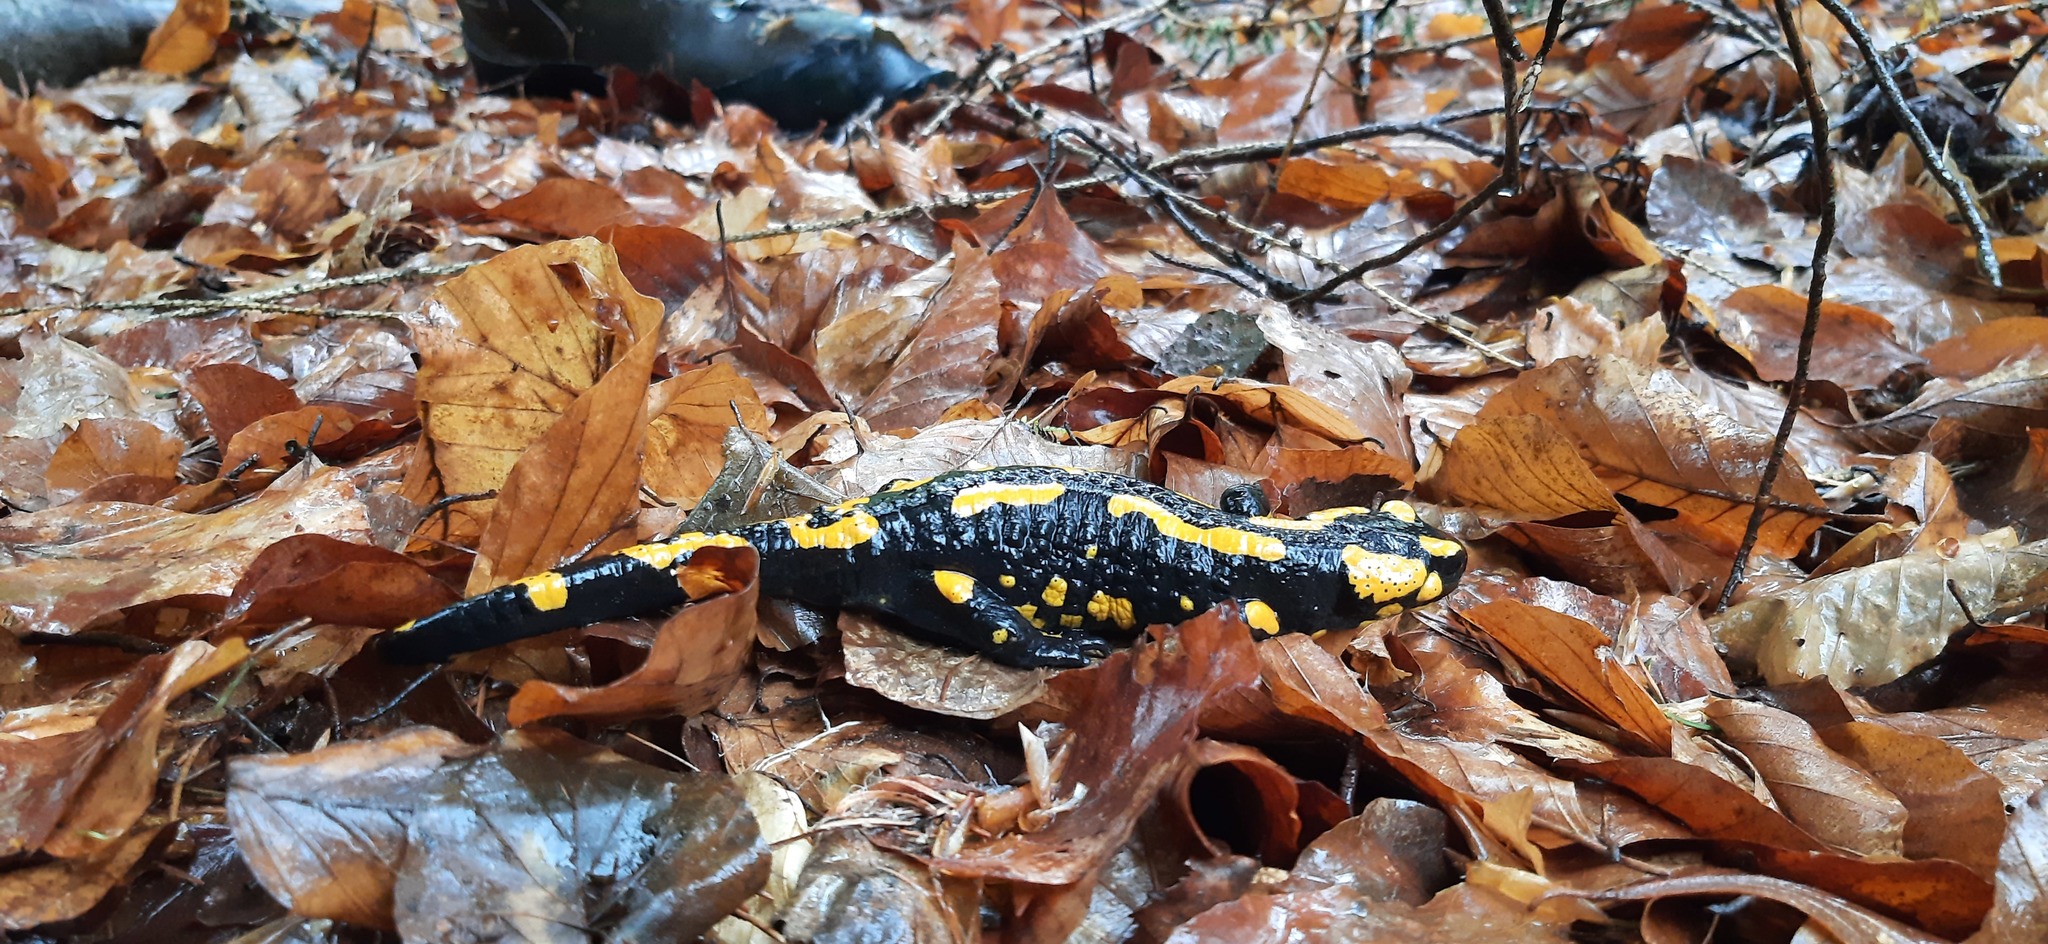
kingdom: Animalia
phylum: Chordata
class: Amphibia
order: Caudata
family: Salamandridae
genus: Salamandra
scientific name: Salamandra salamandra
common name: Fire salamander
